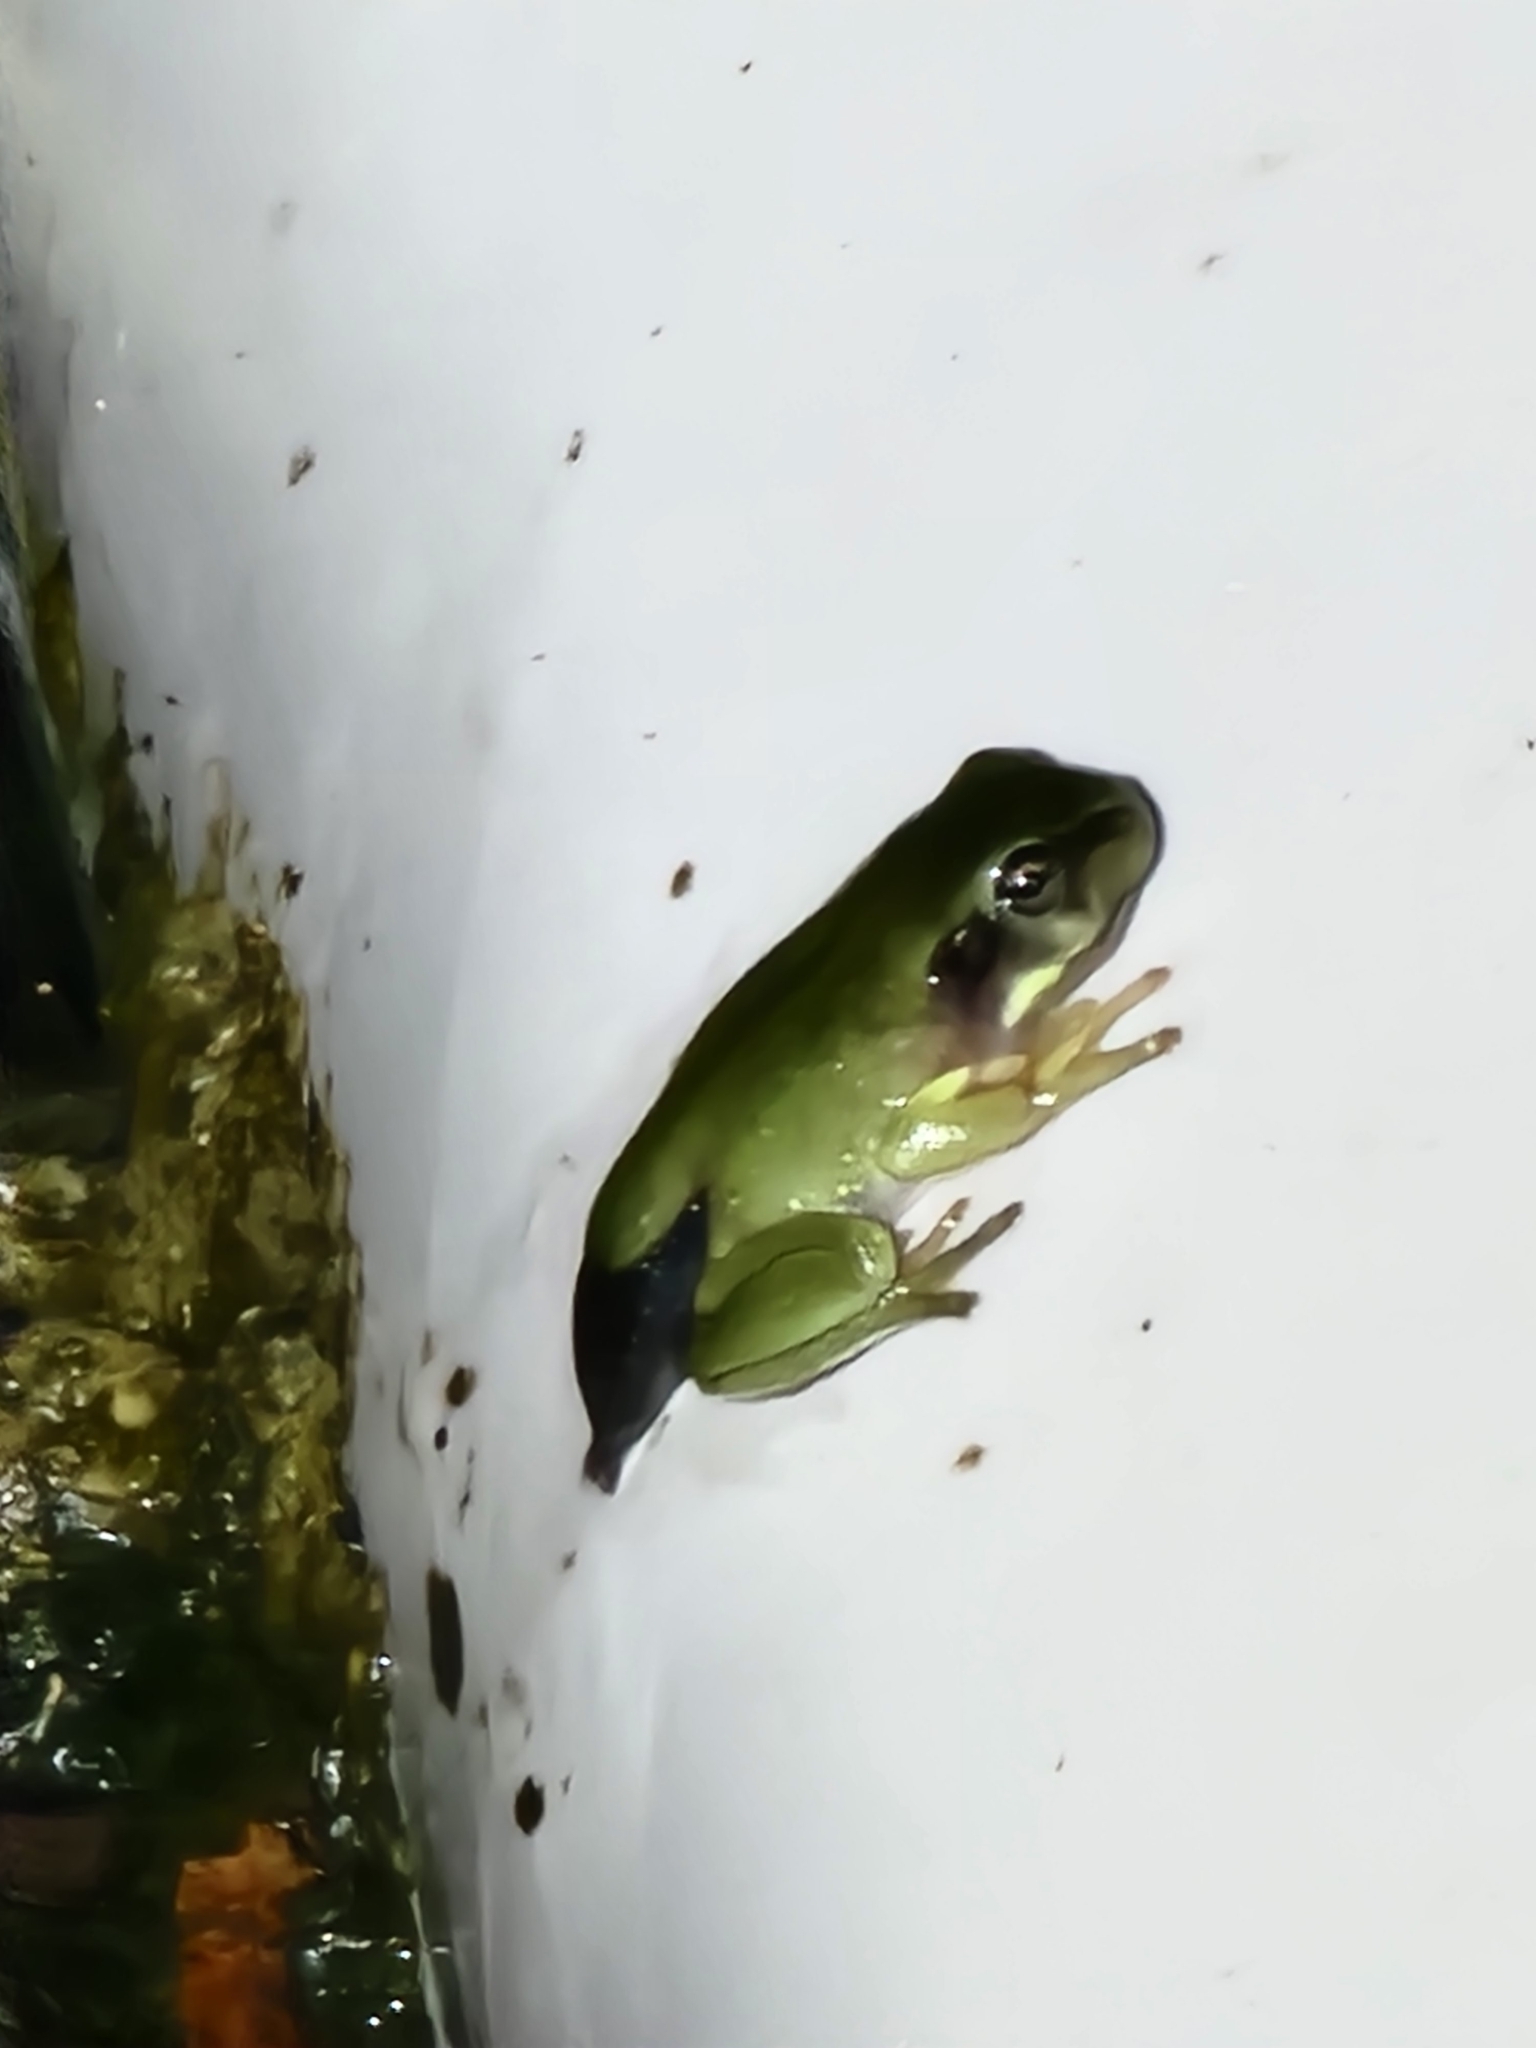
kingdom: Animalia
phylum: Chordata
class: Amphibia
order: Anura
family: Pelodryadidae
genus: Ranoidea
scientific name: Ranoidea caerulea
